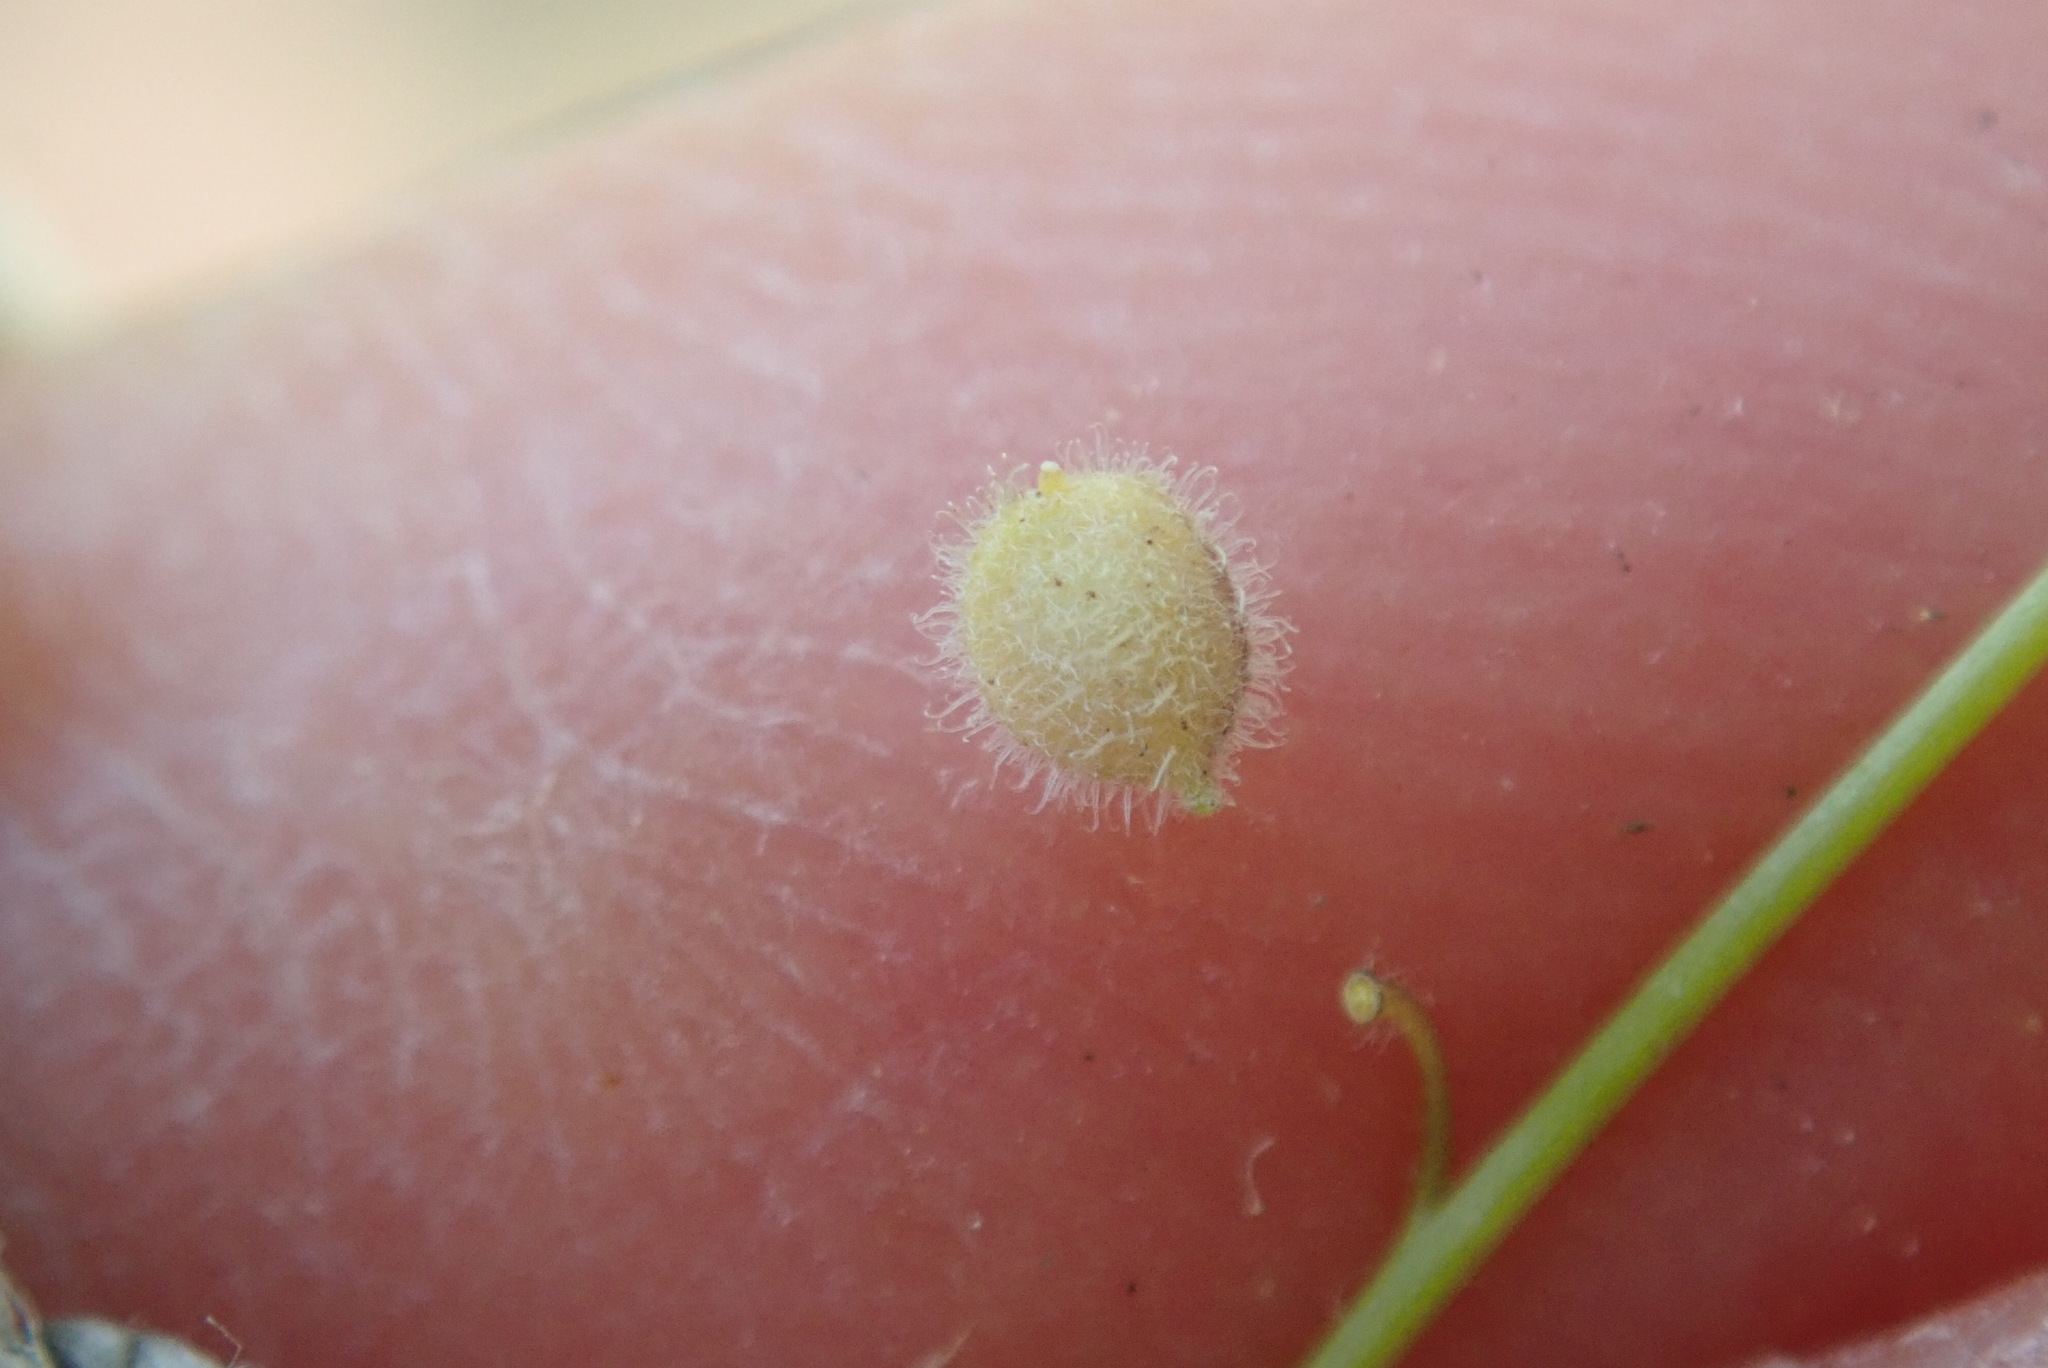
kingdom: Plantae
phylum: Tracheophyta
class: Magnoliopsida
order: Brassicales
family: Brassicaceae
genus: Athysanus
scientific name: Athysanus pusillus
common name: Common sandweed
